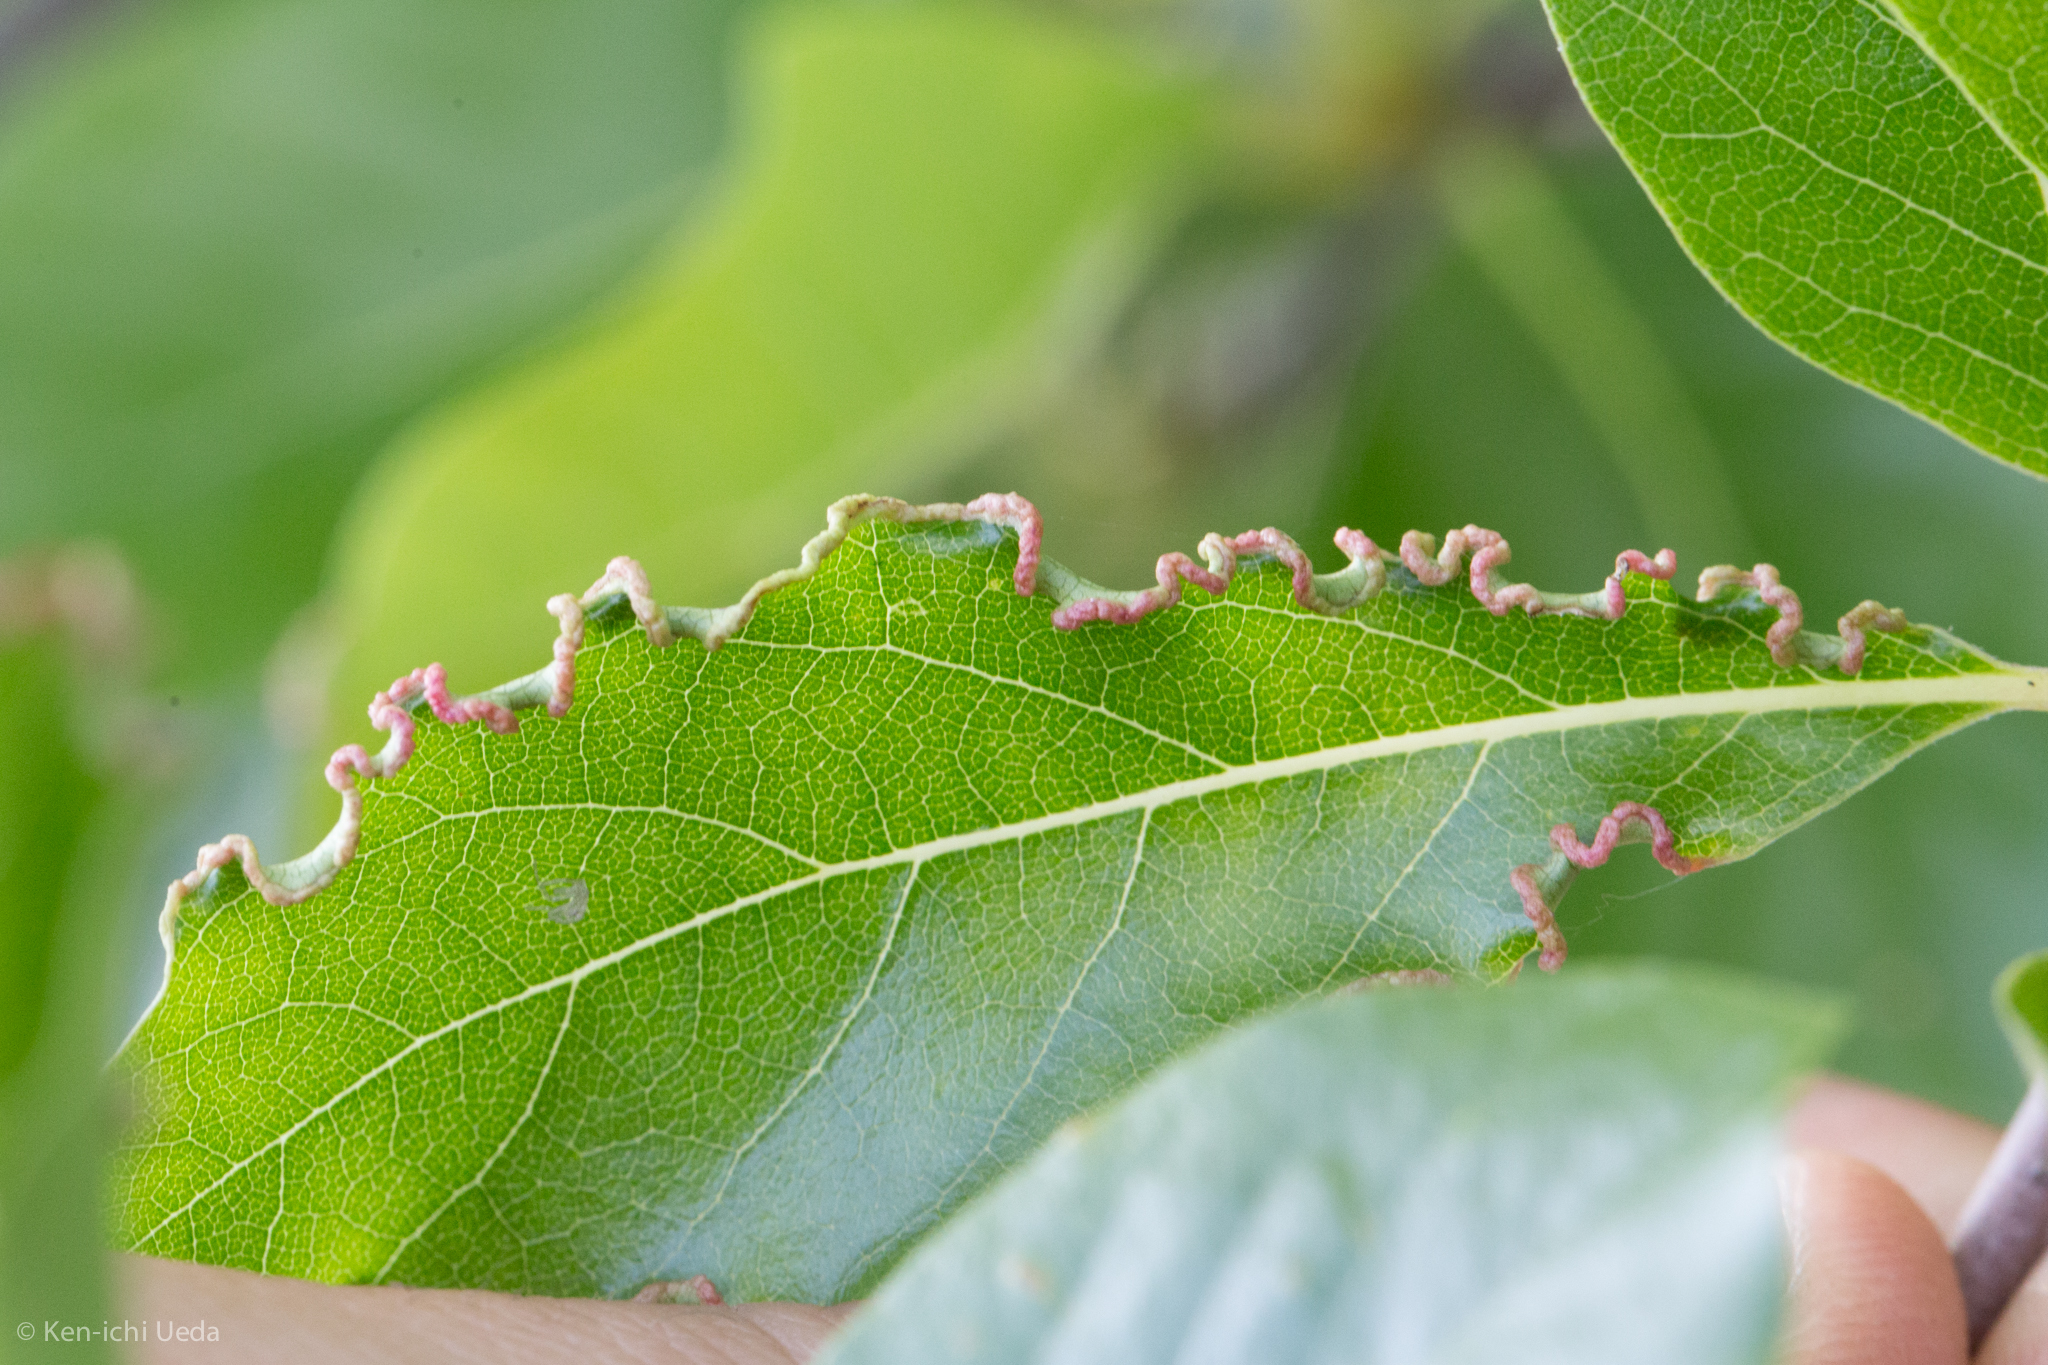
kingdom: Animalia
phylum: Arthropoda
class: Arachnida
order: Trombidiformes
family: Eriophyidae
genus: Aceria
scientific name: Aceria
